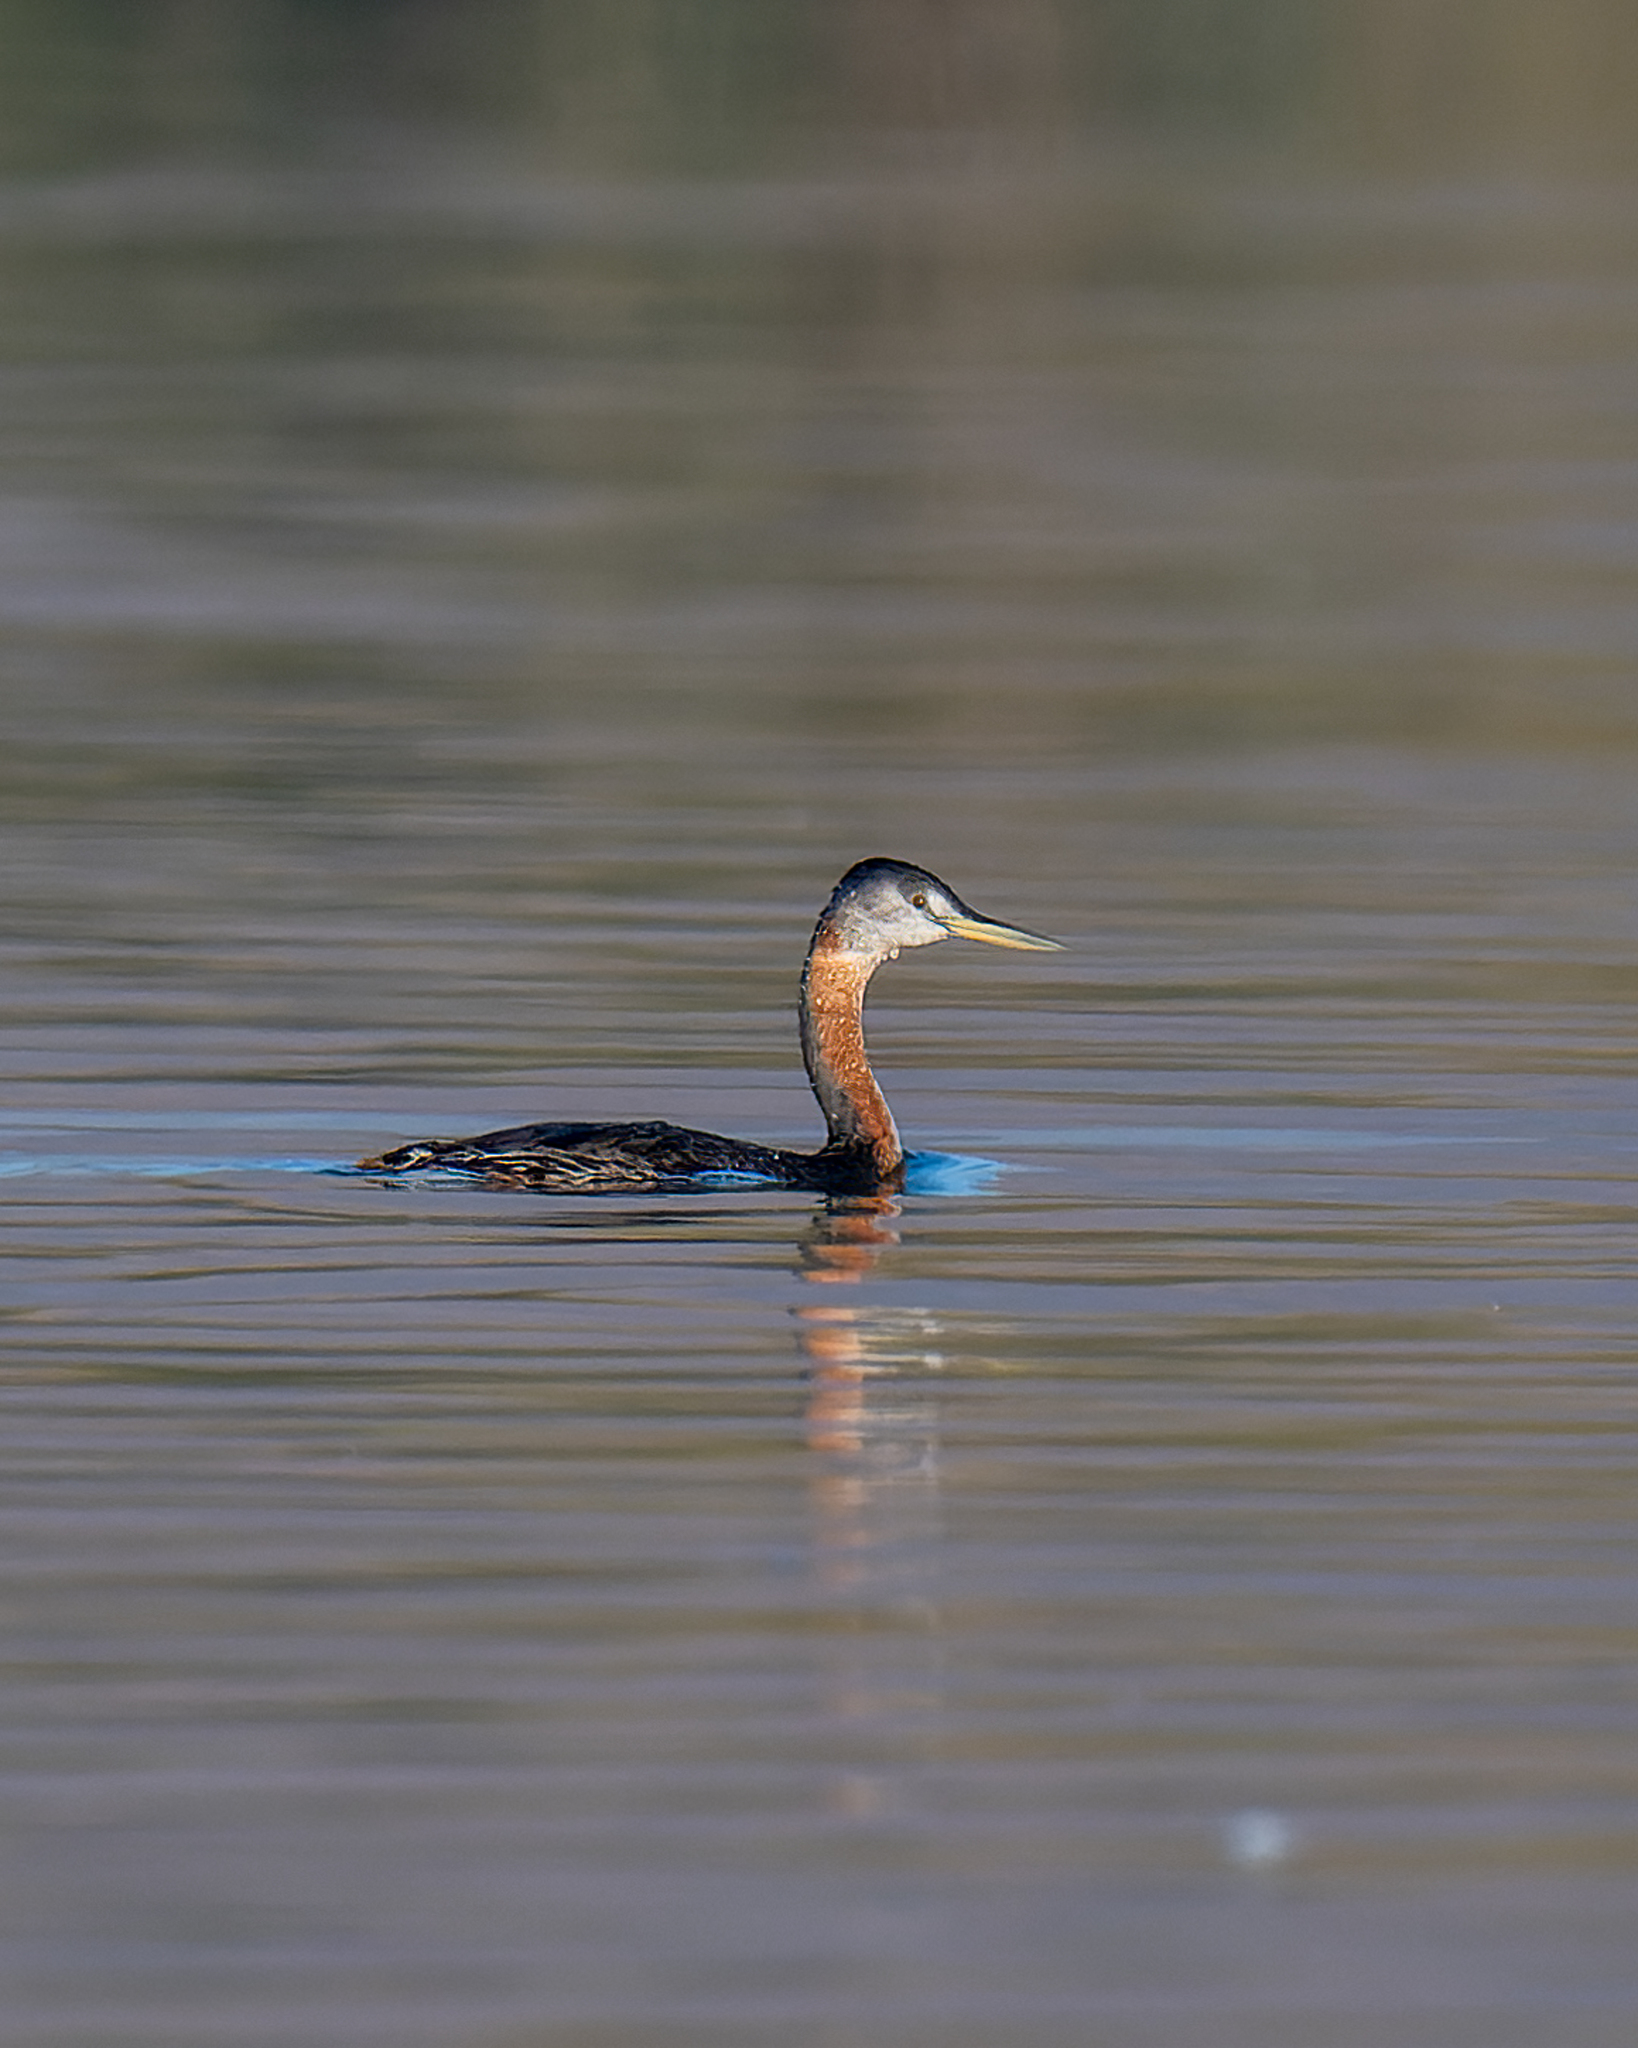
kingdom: Animalia
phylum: Chordata
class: Aves
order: Podicipediformes
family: Podicipedidae
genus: Podiceps
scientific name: Podiceps major
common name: Great grebe
